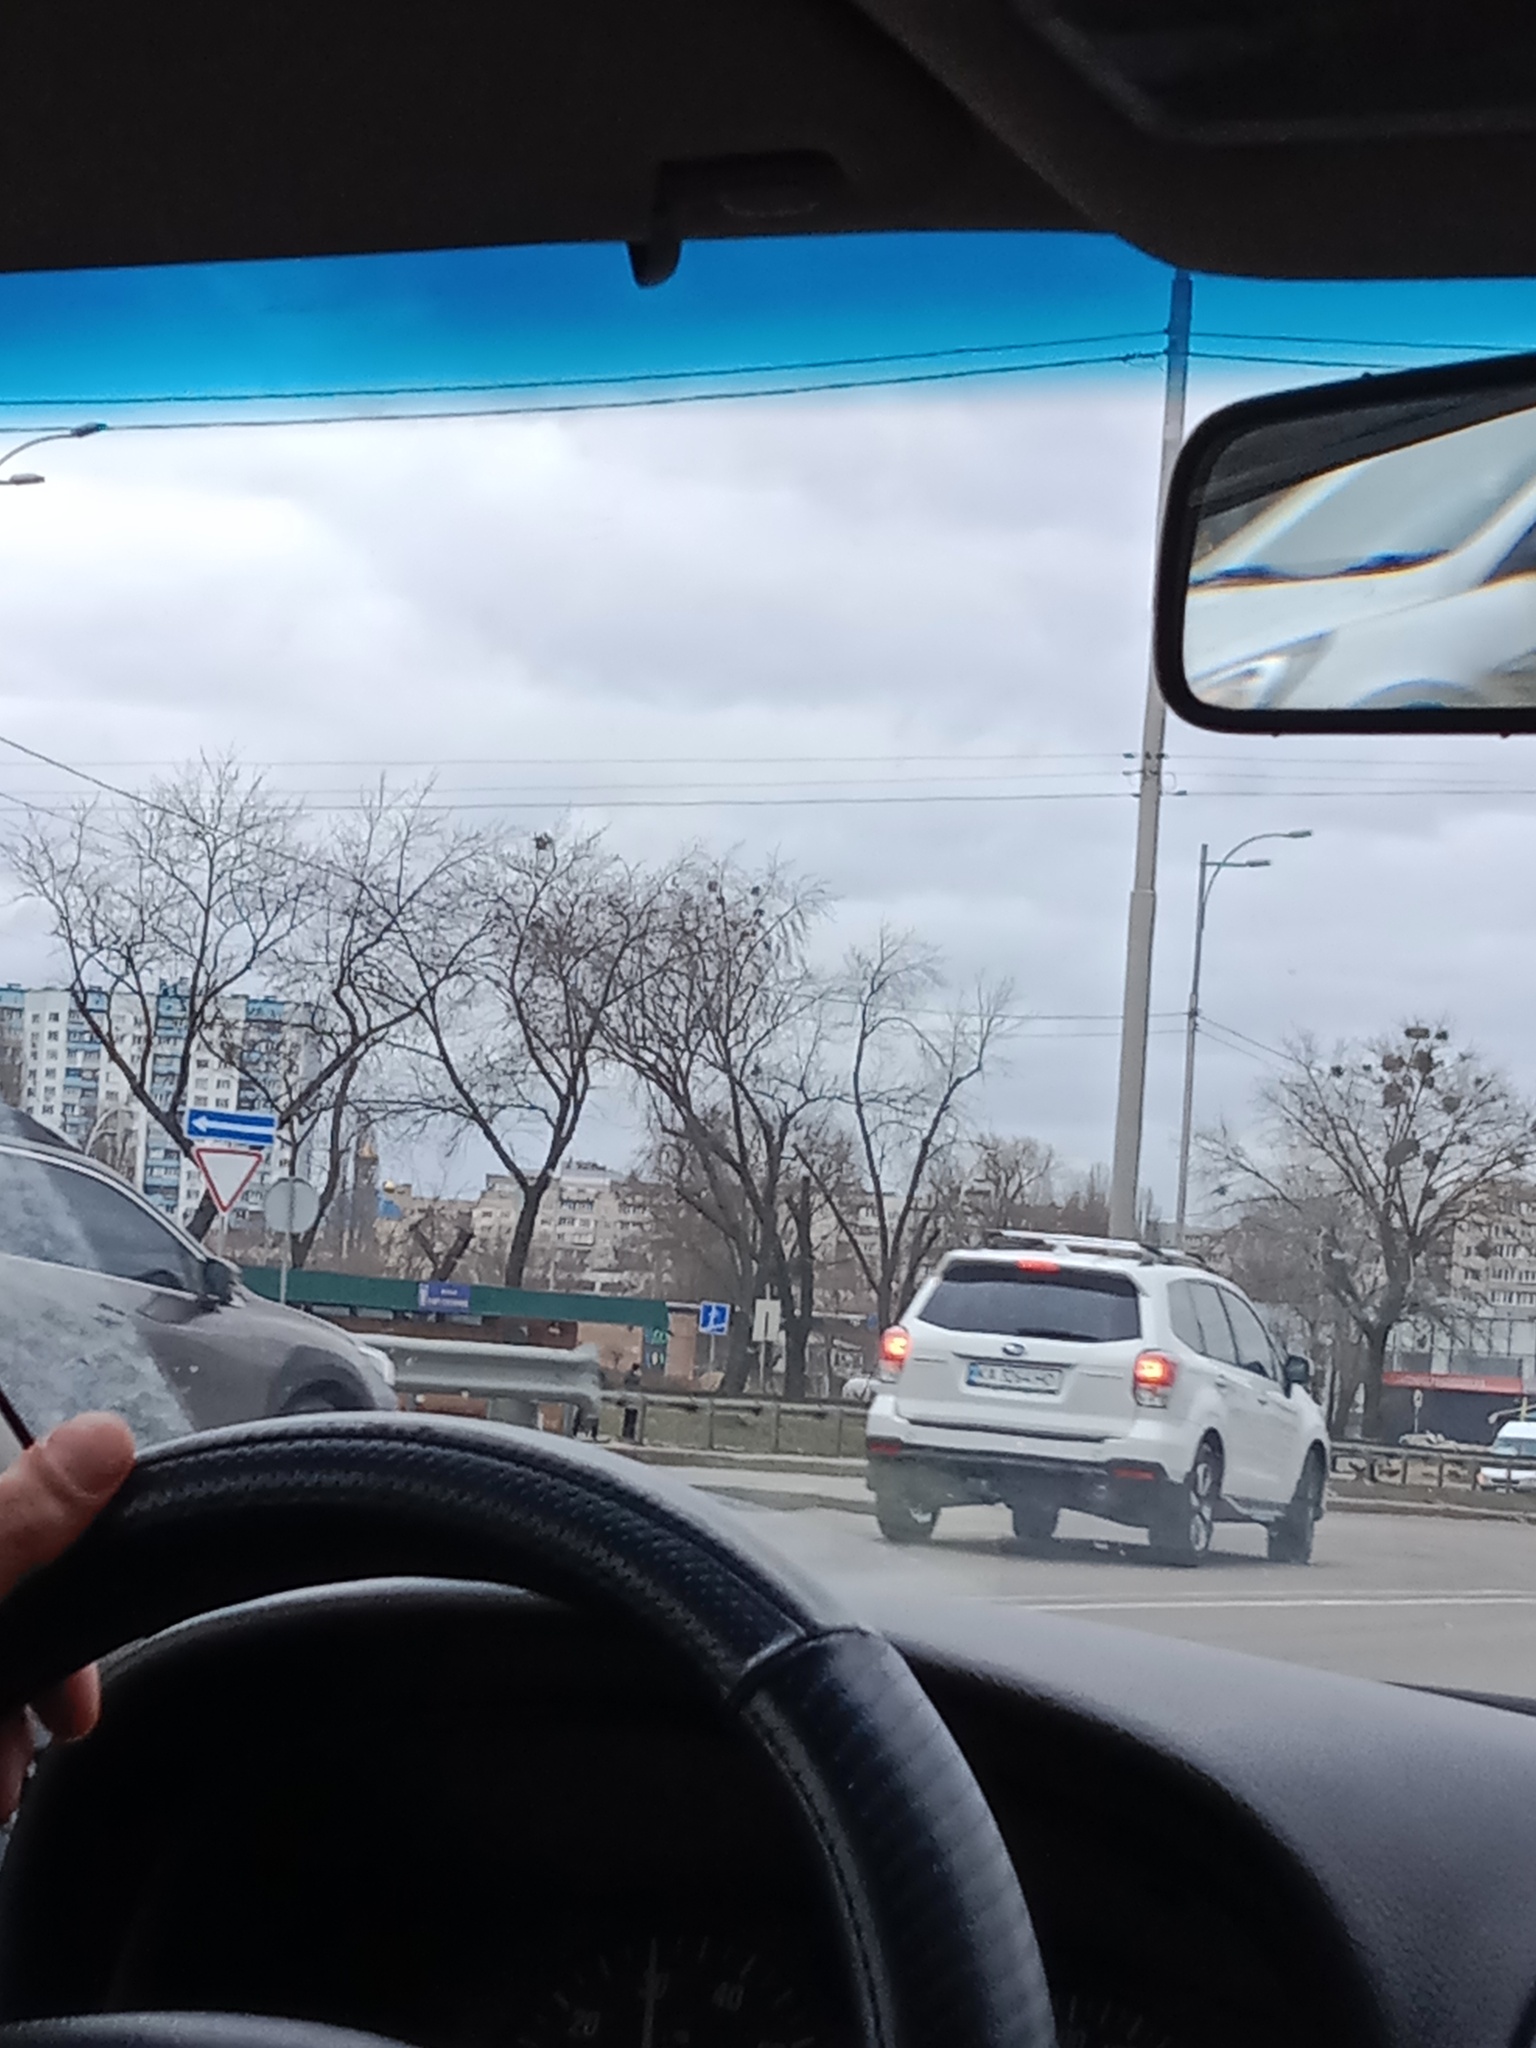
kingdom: Plantae
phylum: Tracheophyta
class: Magnoliopsida
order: Santalales
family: Viscaceae
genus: Viscum
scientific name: Viscum album
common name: Mistletoe
